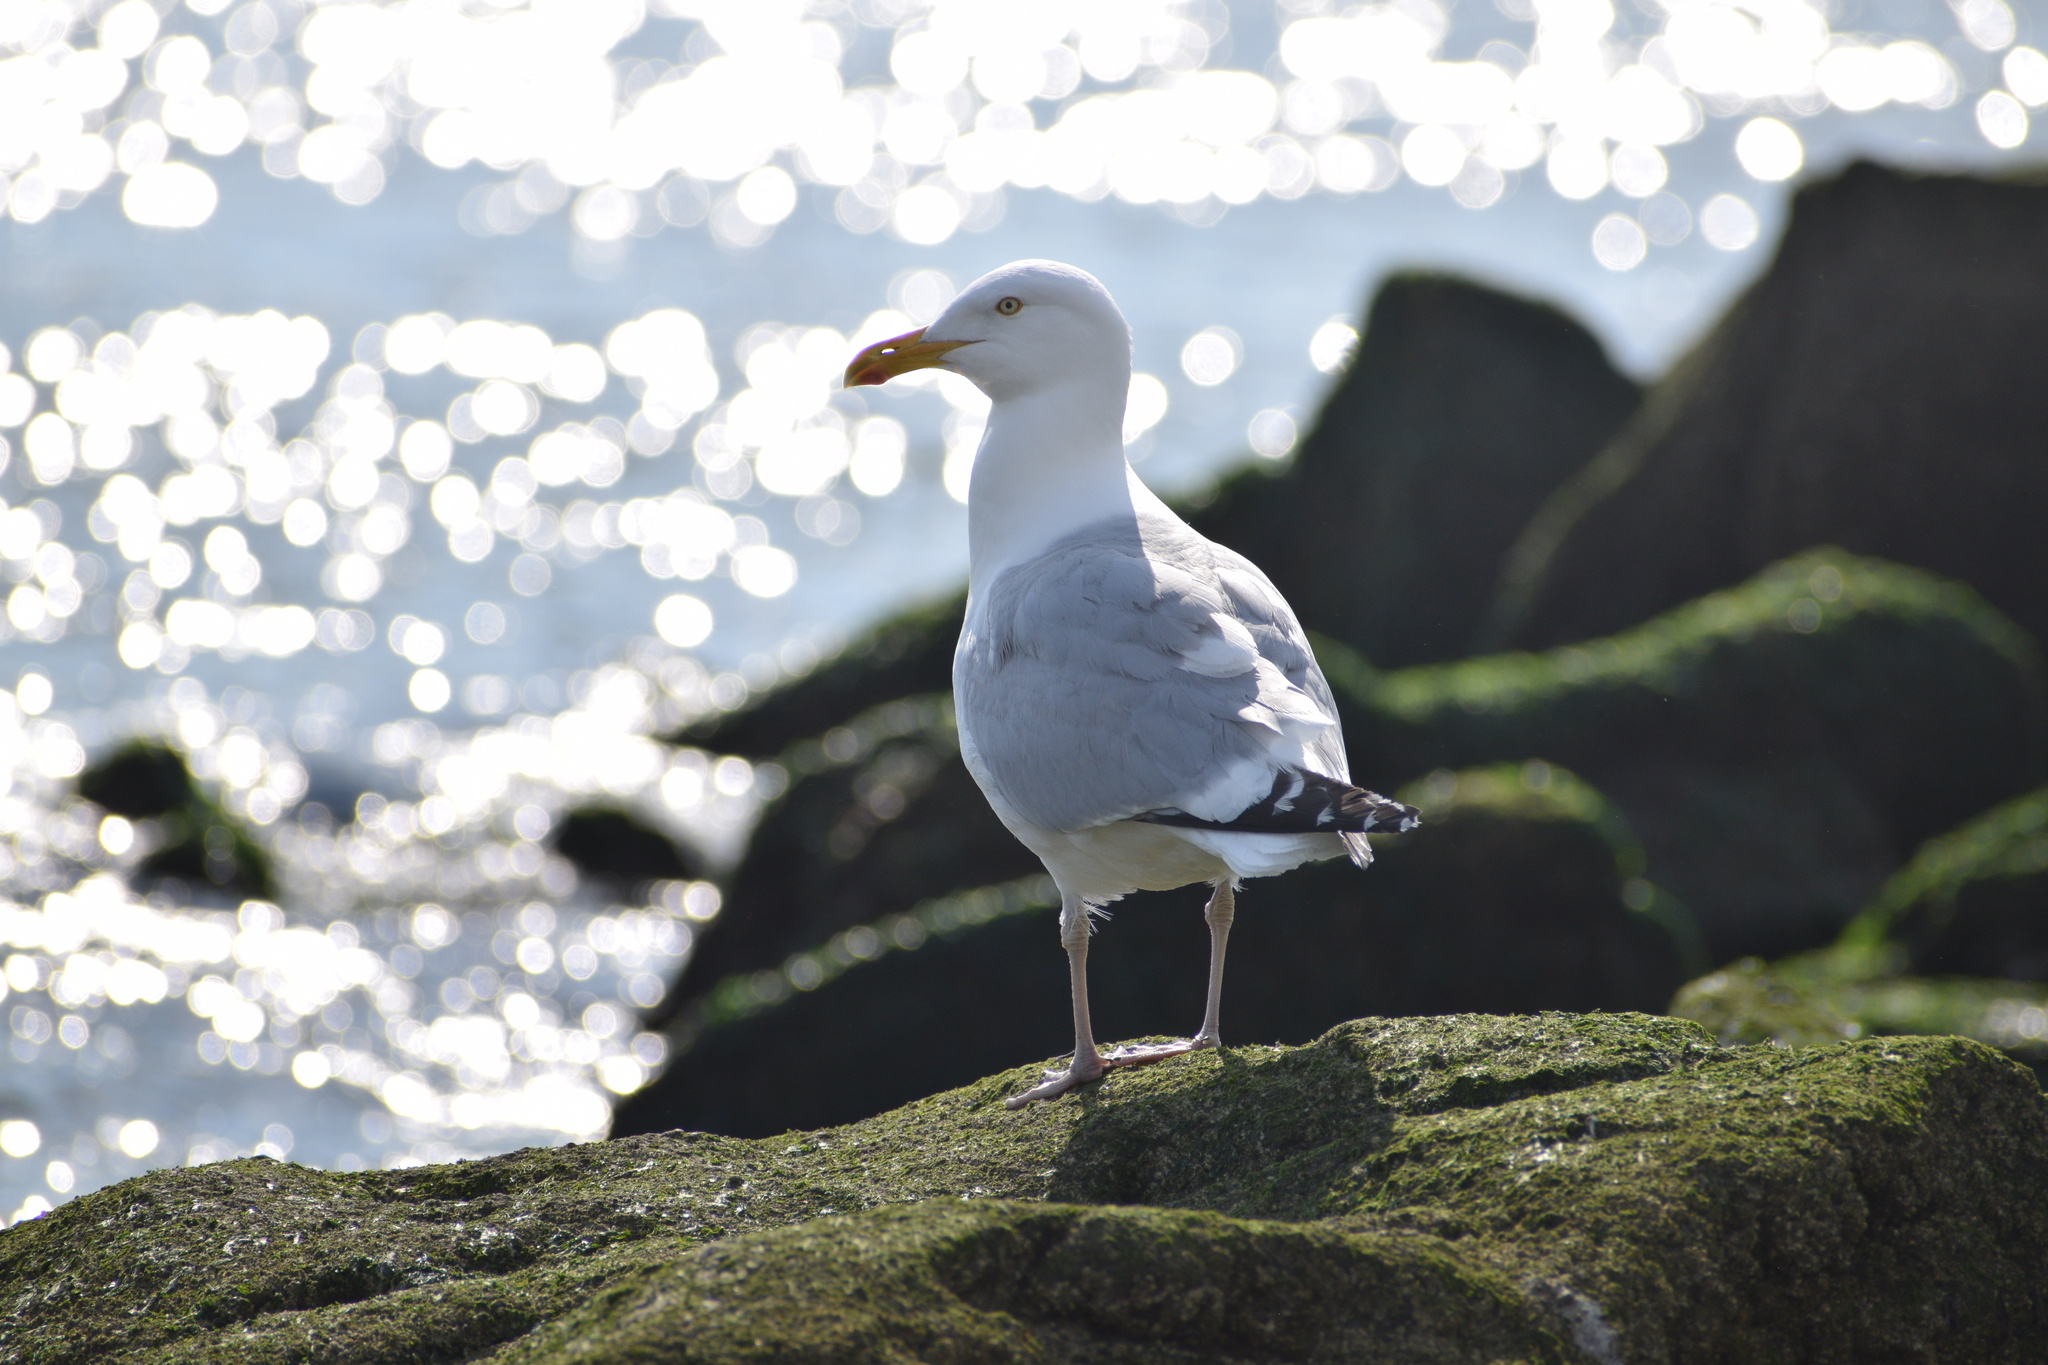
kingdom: Animalia
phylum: Chordata
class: Aves
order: Charadriiformes
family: Laridae
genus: Larus
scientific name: Larus argentatus
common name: Herring gull
